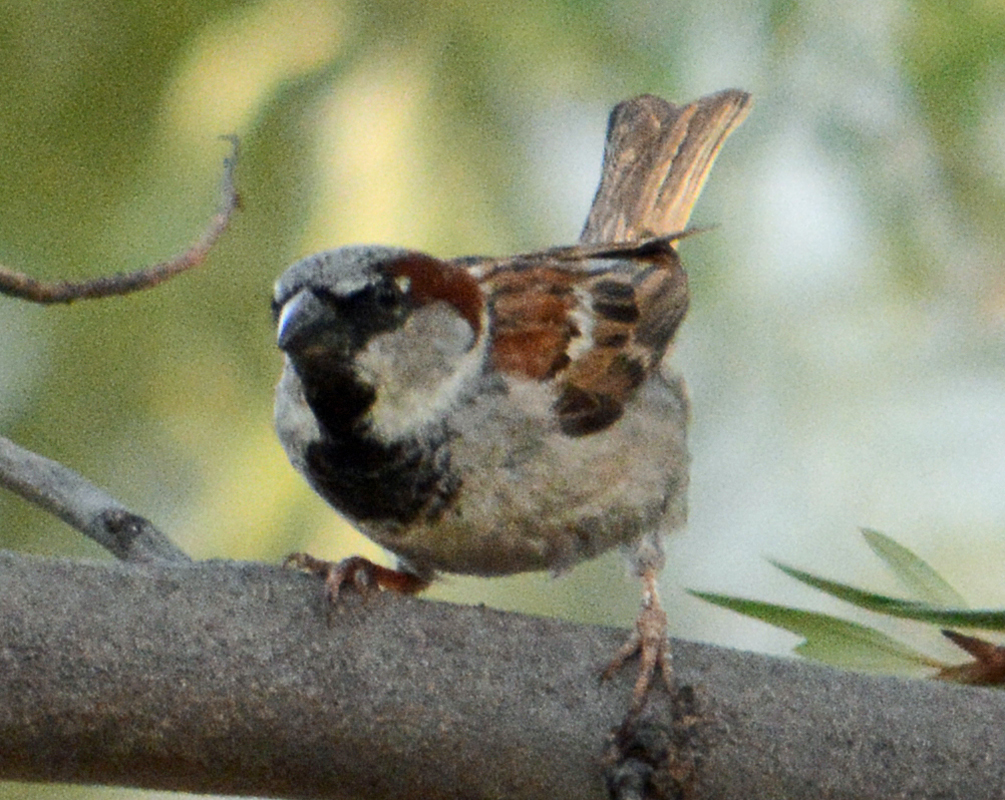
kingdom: Animalia
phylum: Chordata
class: Aves
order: Passeriformes
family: Passeridae
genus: Passer
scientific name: Passer domesticus
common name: House sparrow
